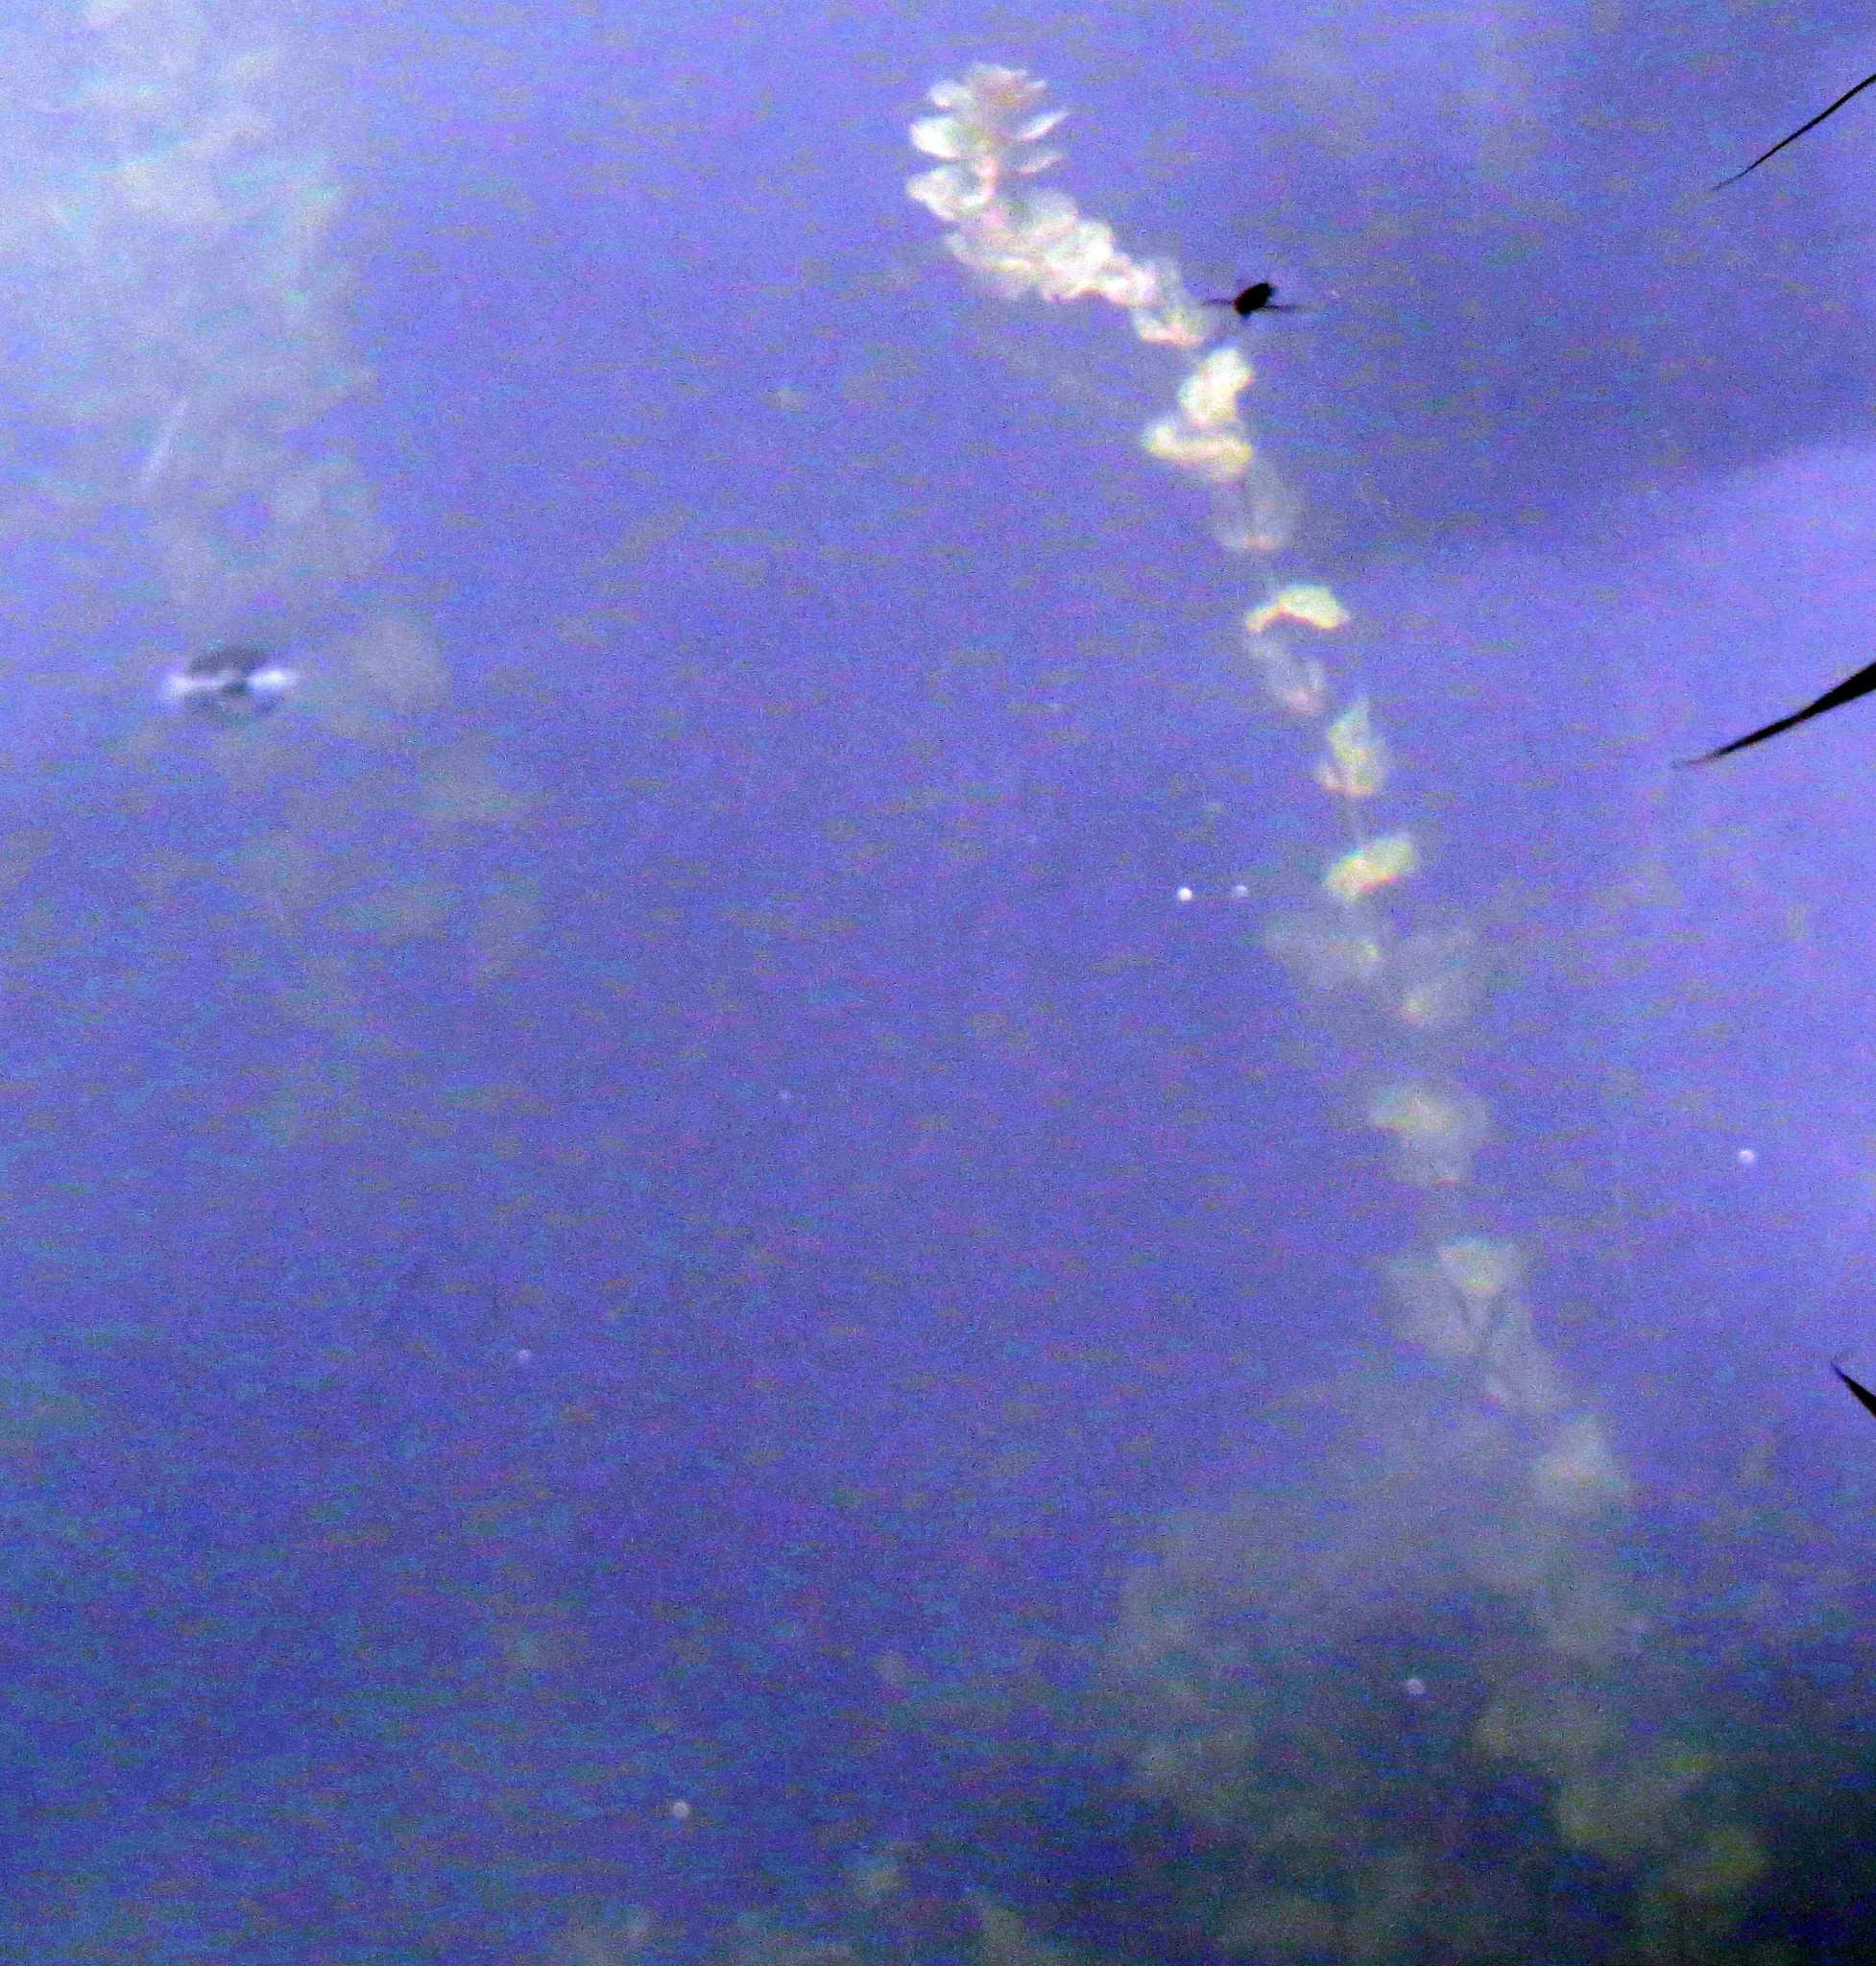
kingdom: Plantae
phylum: Tracheophyta
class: Liliopsida
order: Alismatales
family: Potamogetonaceae
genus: Potamogeton
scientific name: Potamogeton perfoliatus
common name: Perfoliate pondweed
